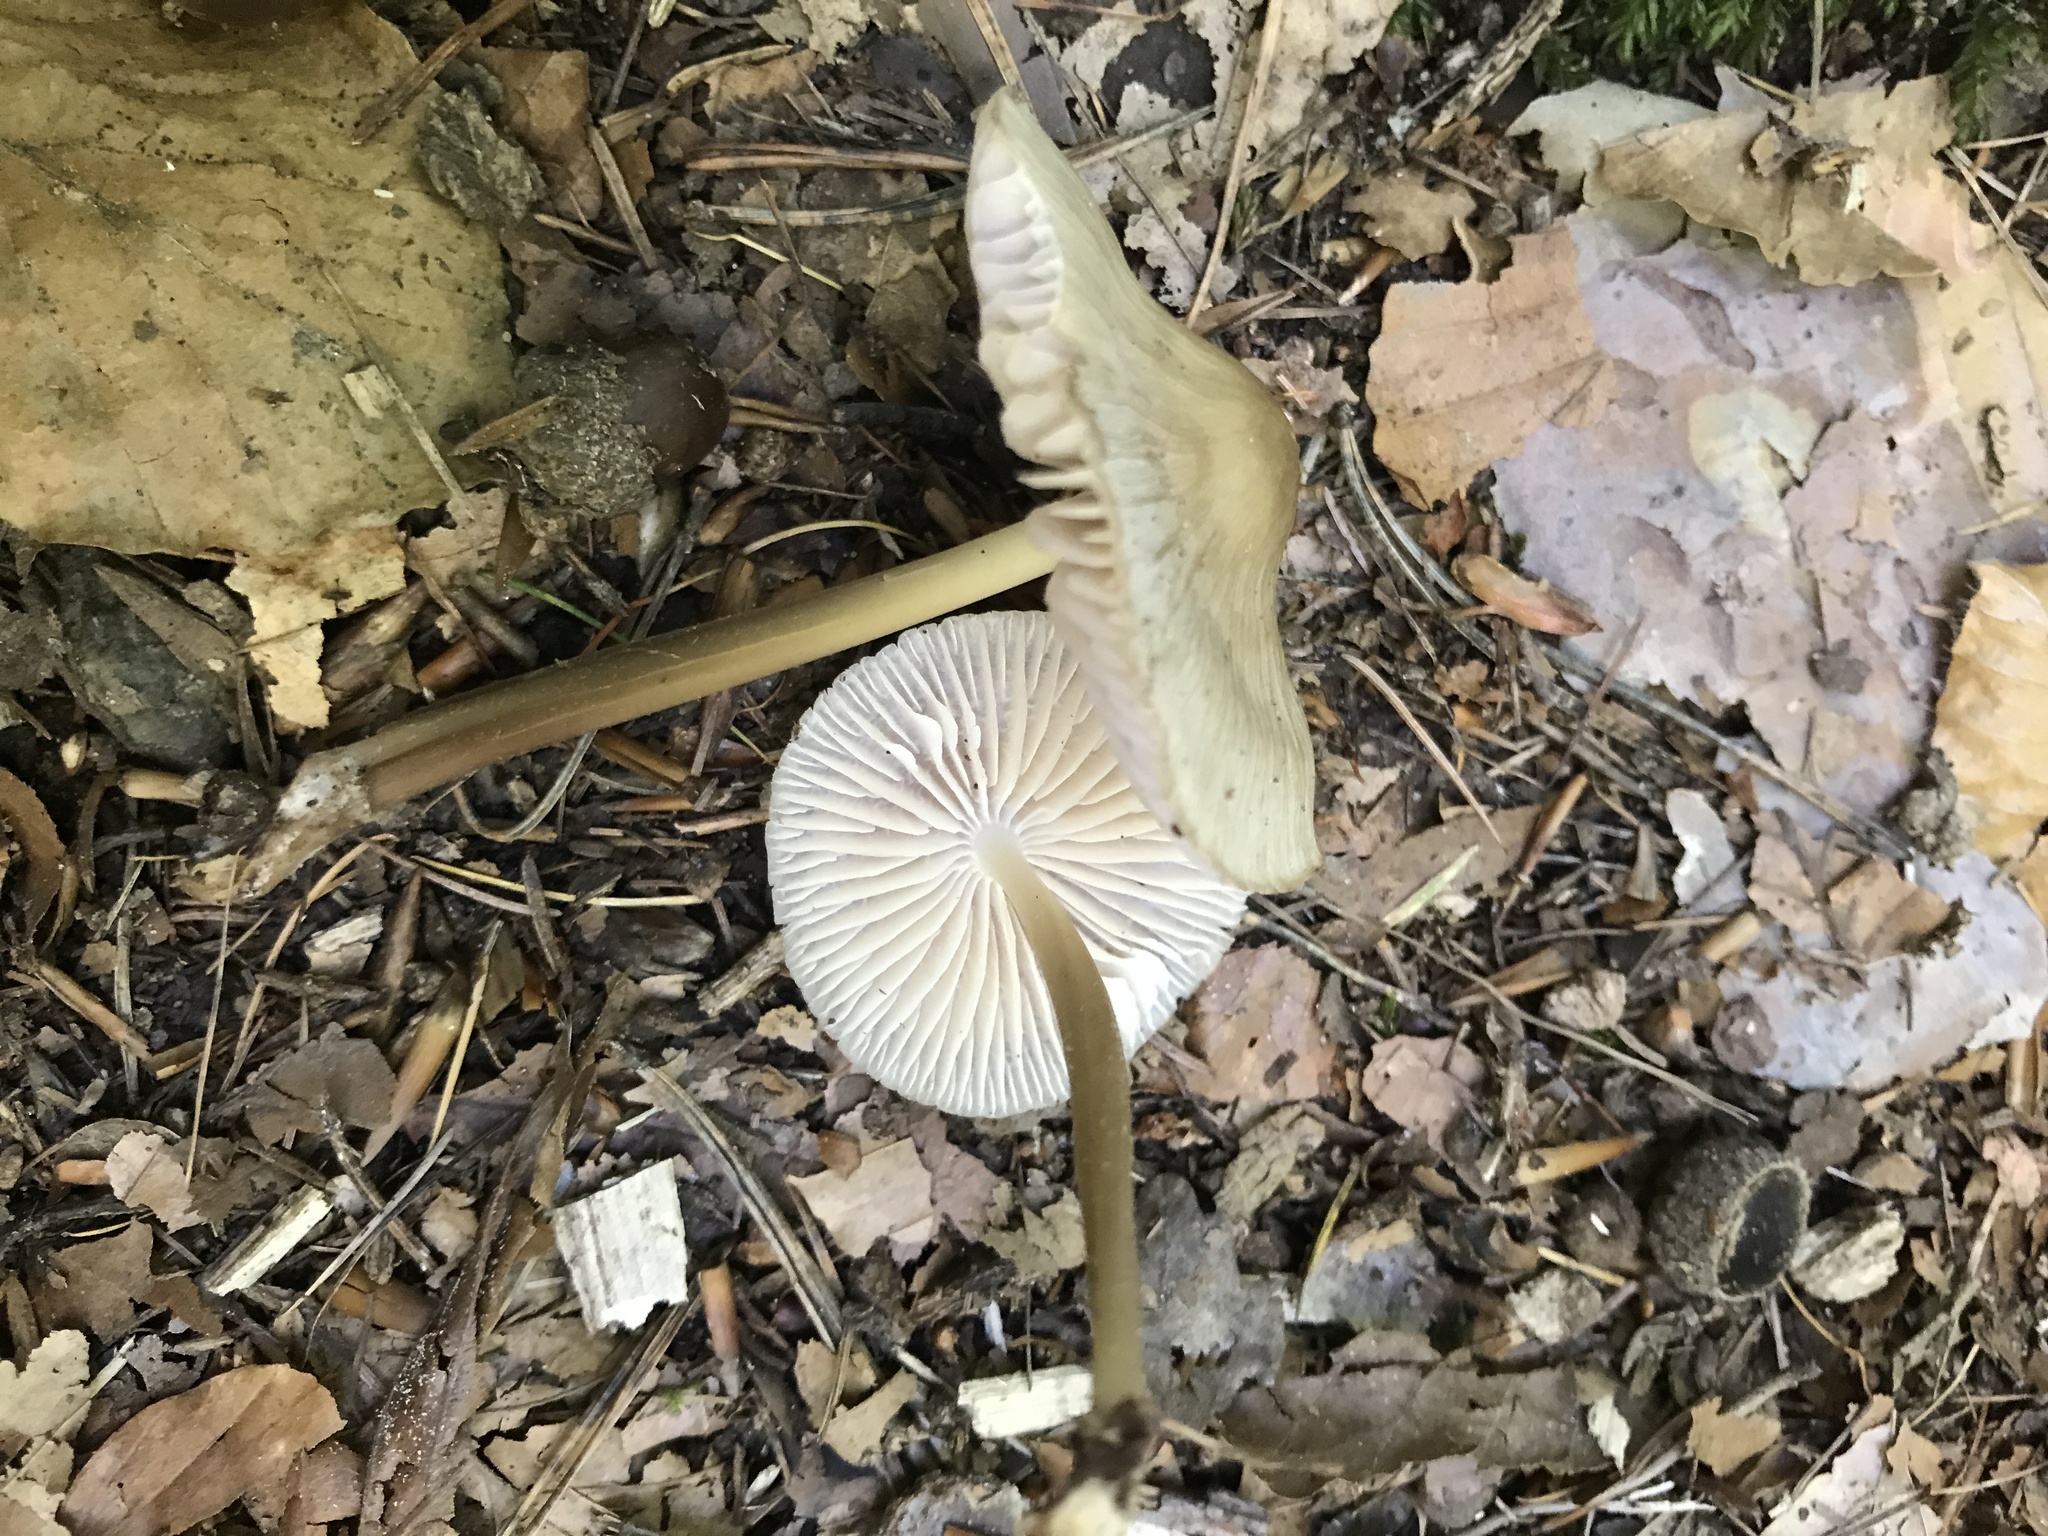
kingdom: Fungi
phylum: Basidiomycota
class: Agaricomycetes
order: Agaricales
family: Mycenaceae
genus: Mycena
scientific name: Mycena galericulata
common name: Bonnet mycena
